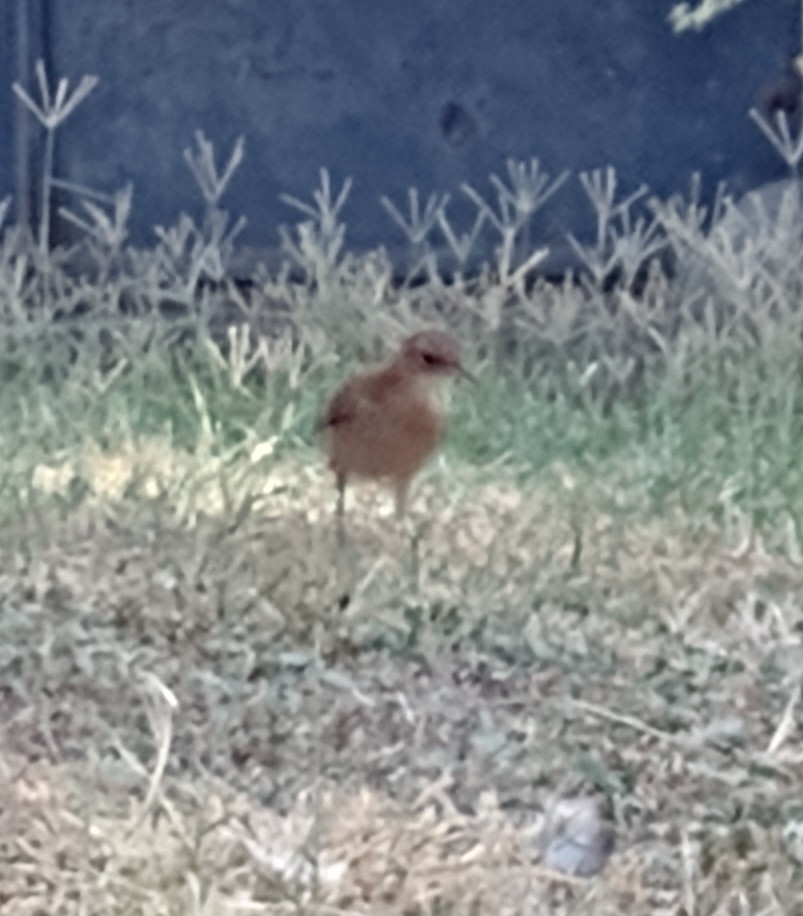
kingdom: Animalia
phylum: Chordata
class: Aves
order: Passeriformes
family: Furnariidae
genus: Furnarius
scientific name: Furnarius rufus
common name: Rufous hornero
